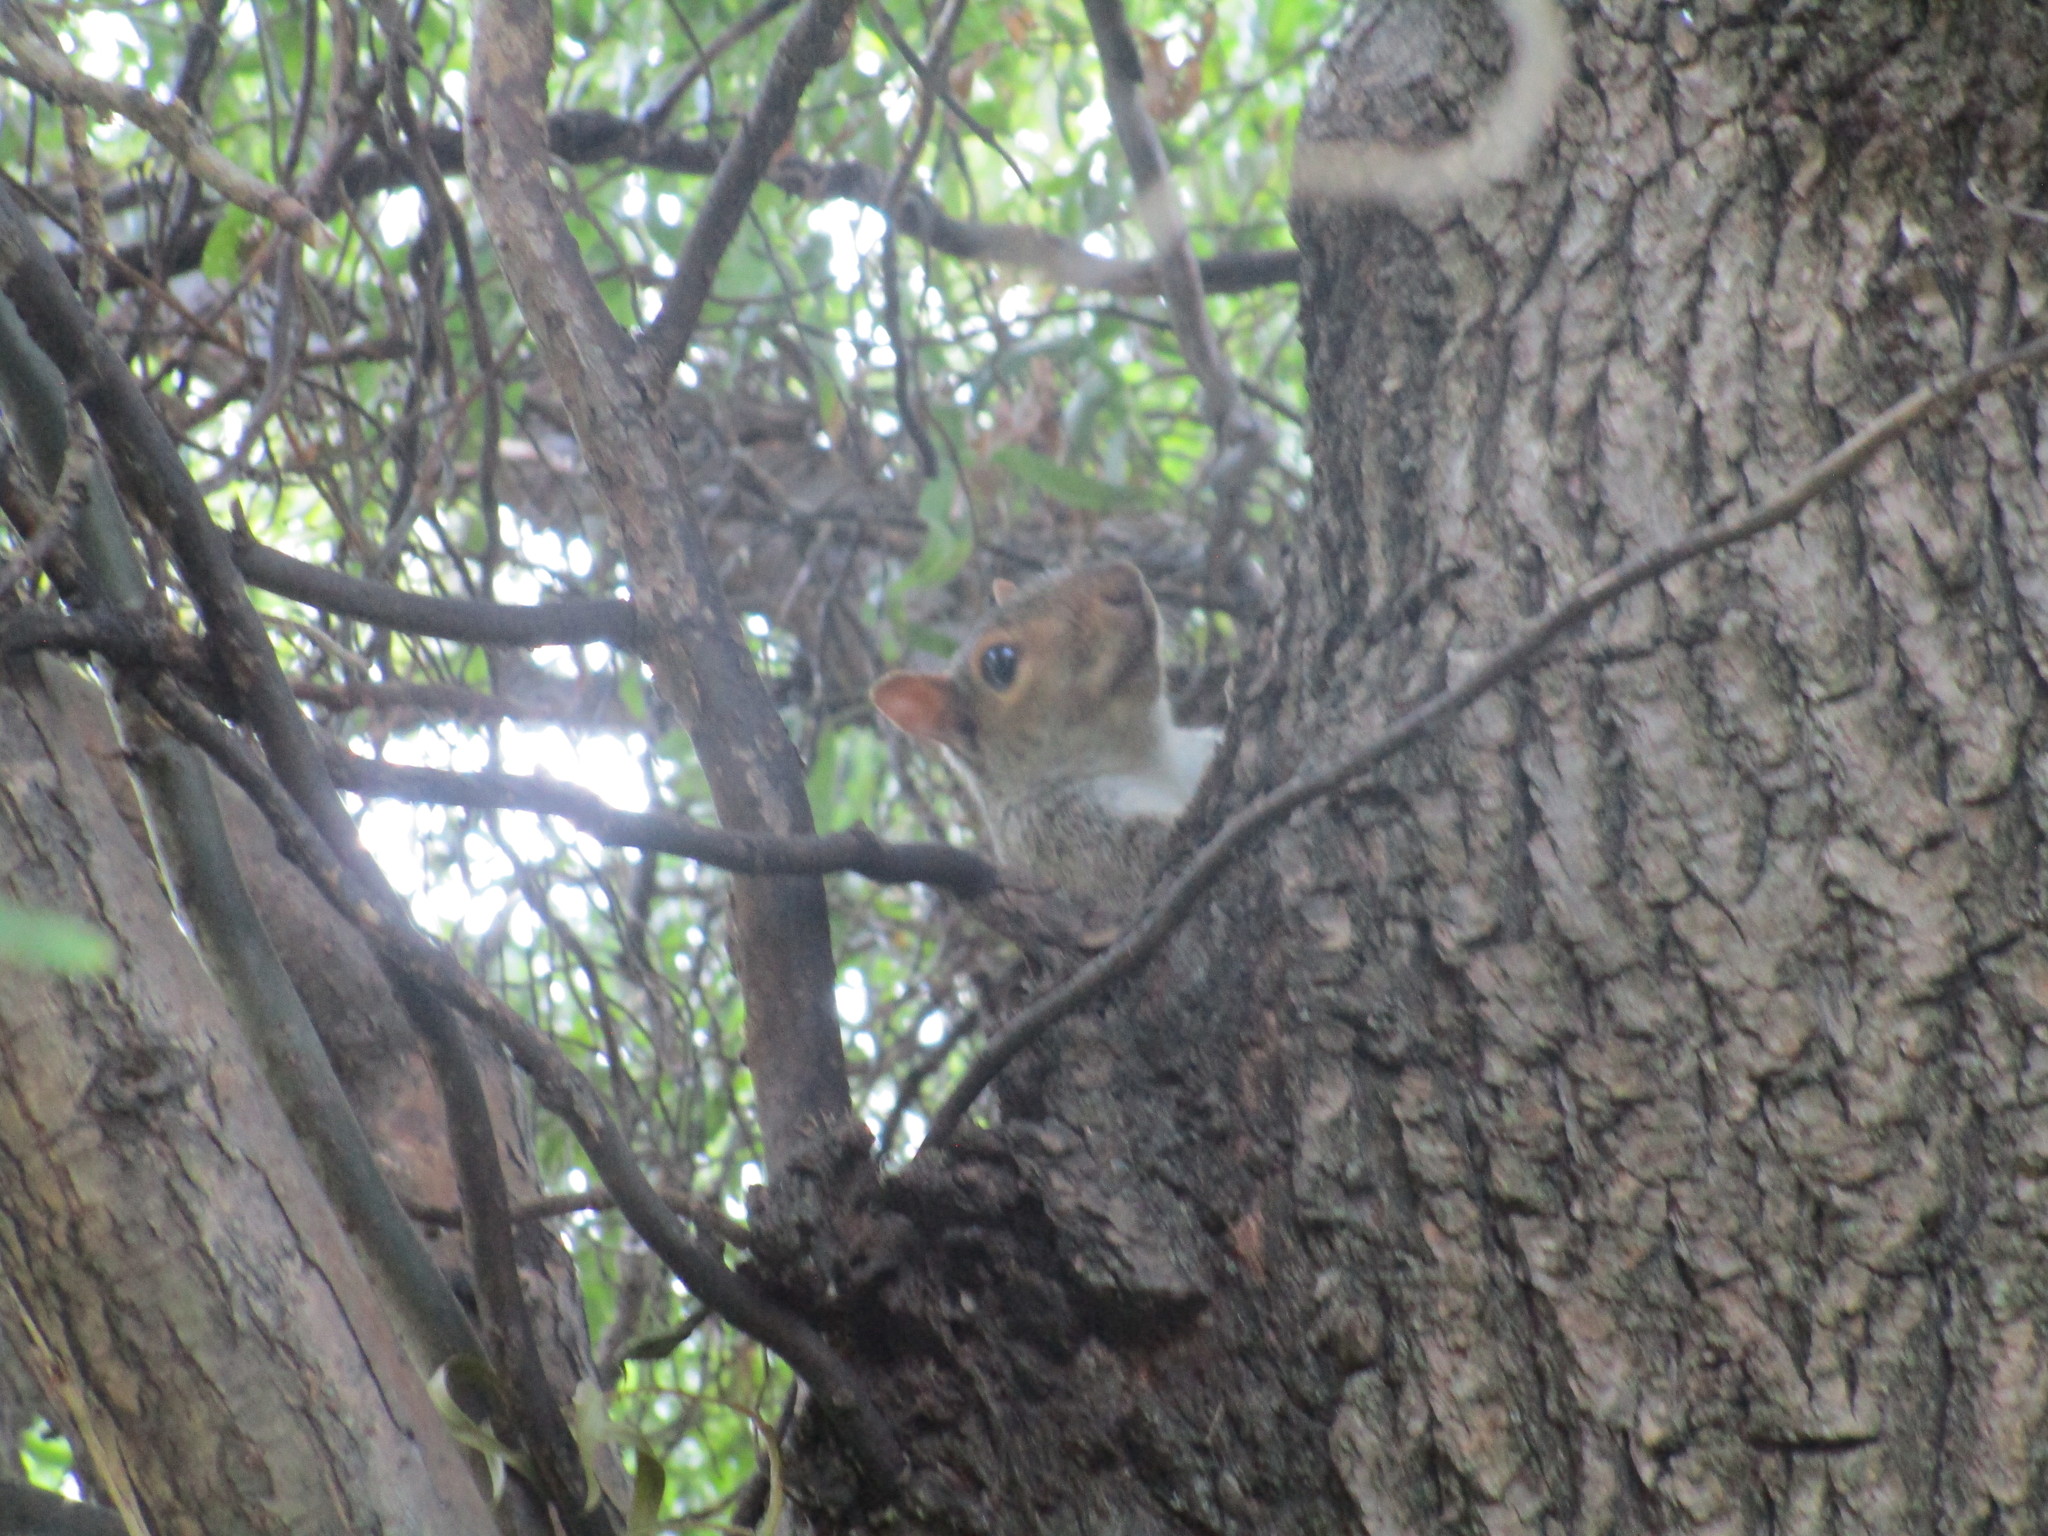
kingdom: Animalia
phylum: Chordata
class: Mammalia
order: Rodentia
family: Sciuridae
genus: Sciurus
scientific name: Sciurus carolinensis
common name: Eastern gray squirrel
